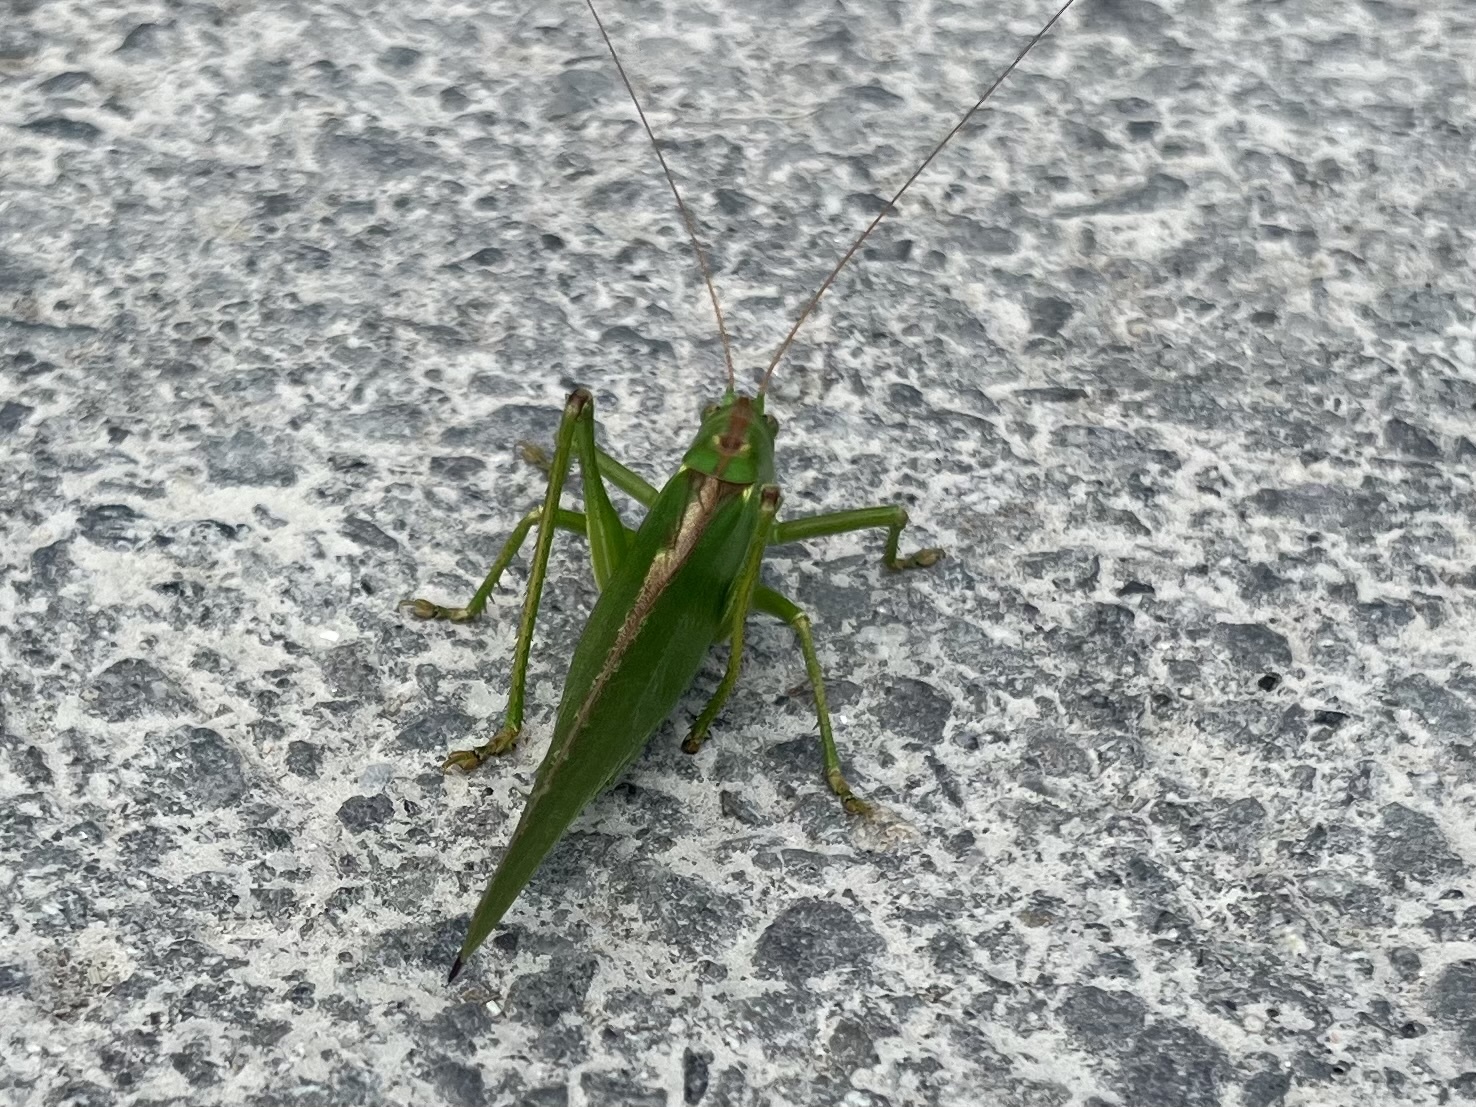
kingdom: Animalia
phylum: Arthropoda
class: Insecta
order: Orthoptera
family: Tettigoniidae
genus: Tettigonia
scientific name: Tettigonia viridissima
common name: Great green bush-cricket
